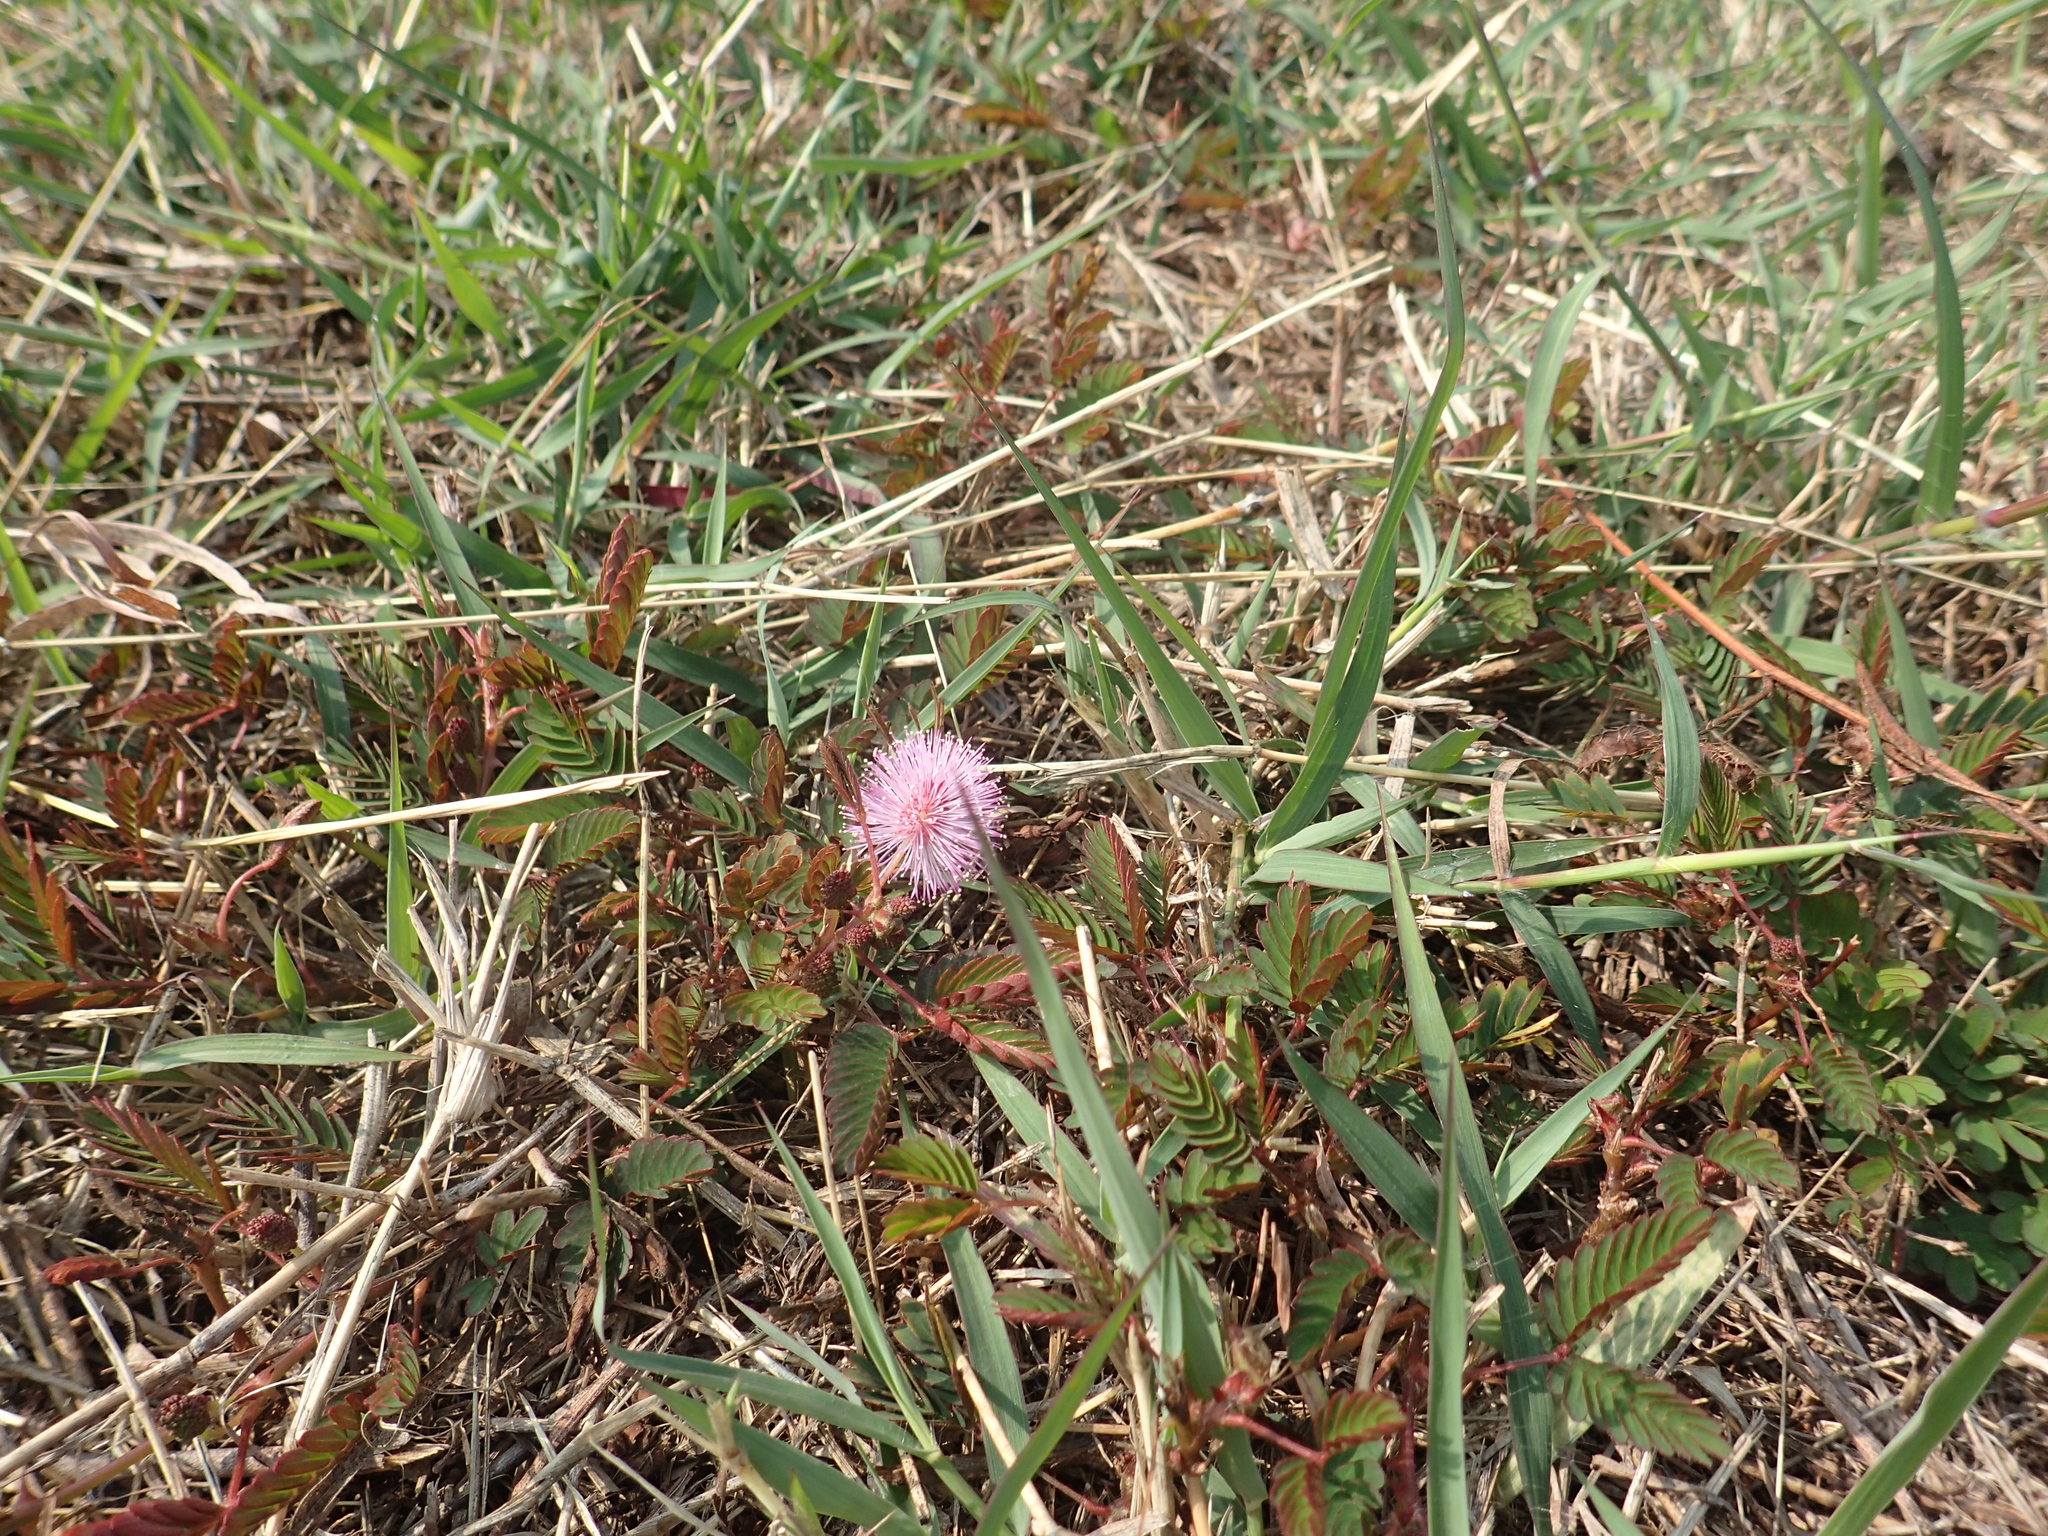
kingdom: Plantae
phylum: Tracheophyta
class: Magnoliopsida
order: Fabales
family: Fabaceae
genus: Mimosa
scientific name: Mimosa pudica
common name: Sensitive plant
